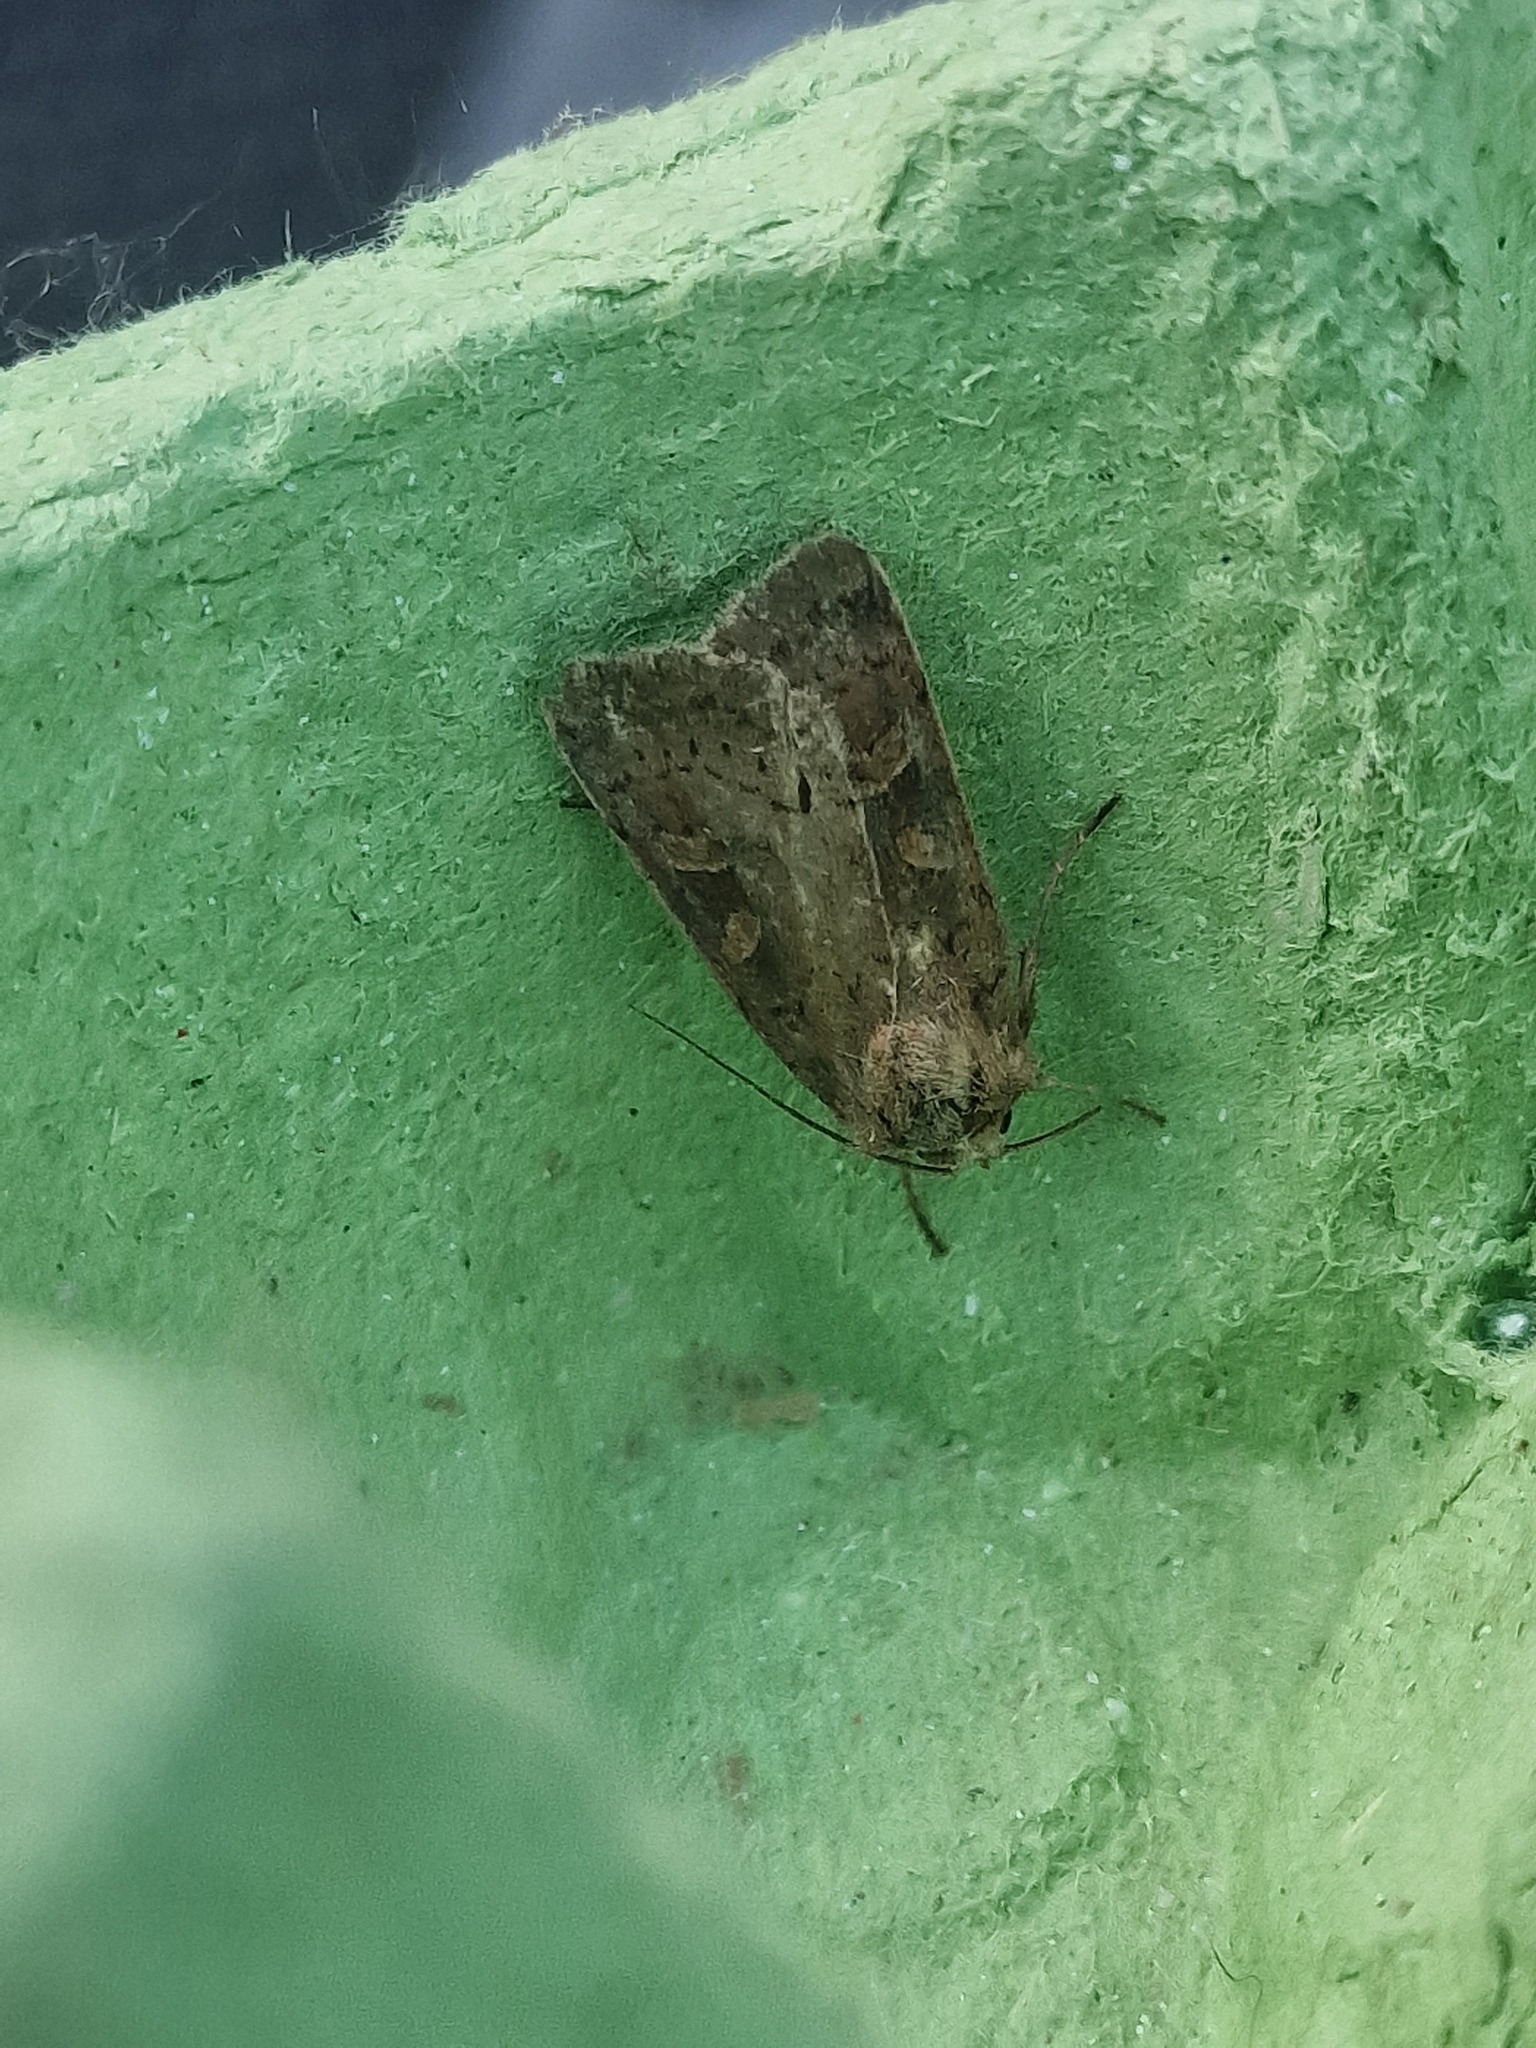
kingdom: Animalia
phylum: Arthropoda
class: Insecta
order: Lepidoptera
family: Noctuidae
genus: Xestia
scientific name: Xestia xanthographa
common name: Square-spot rustic
